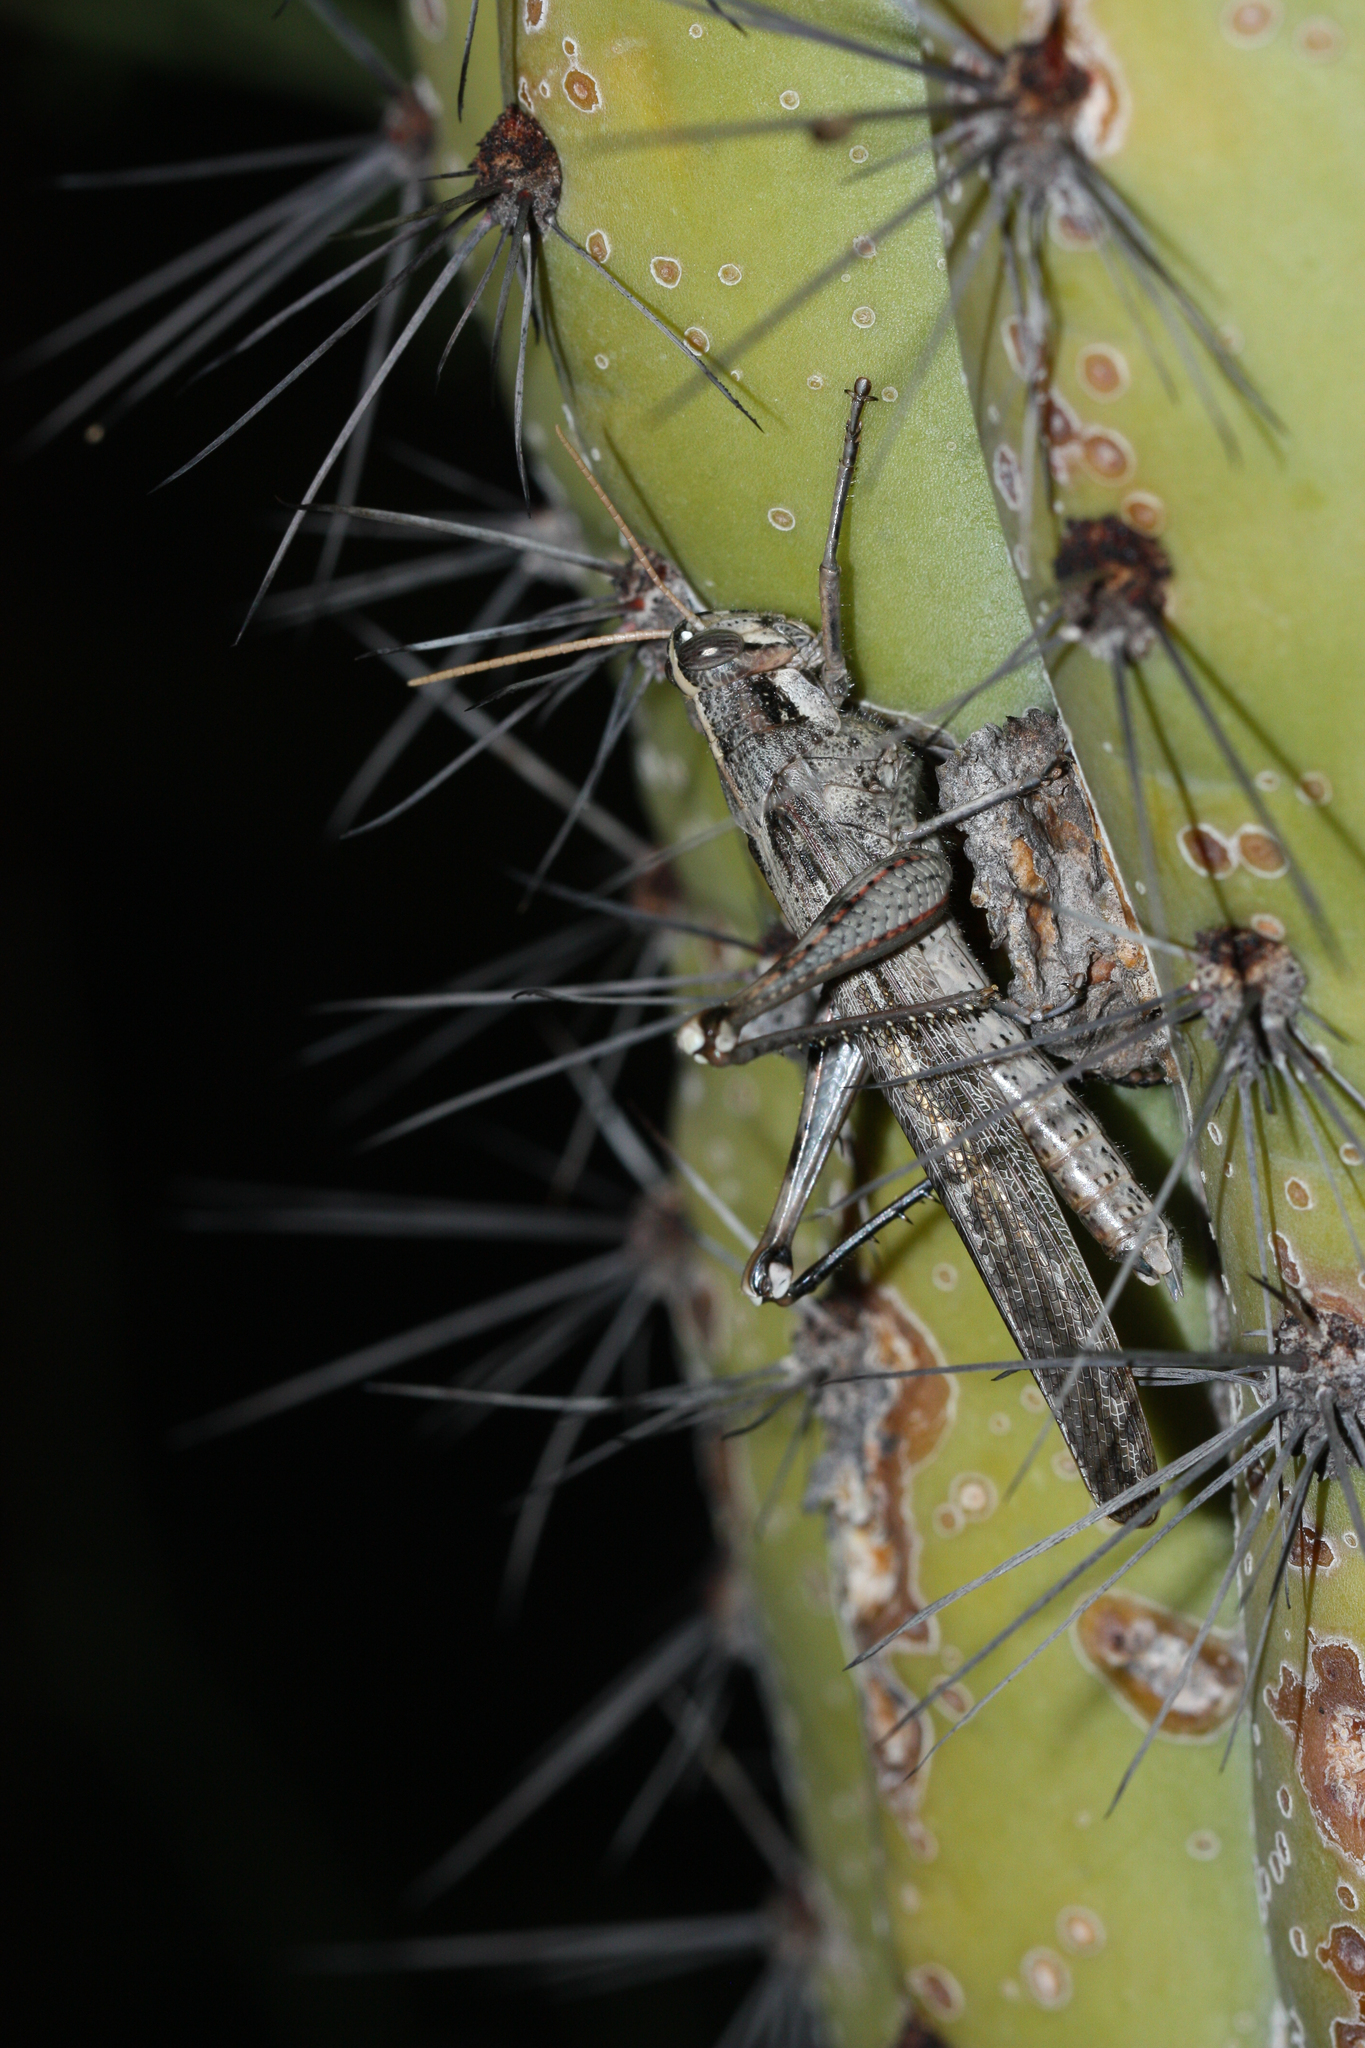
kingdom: Animalia
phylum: Arthropoda
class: Insecta
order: Orthoptera
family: Acrididae
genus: Schistocerca
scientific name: Schistocerca nitens
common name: Vagrant grasshopper
